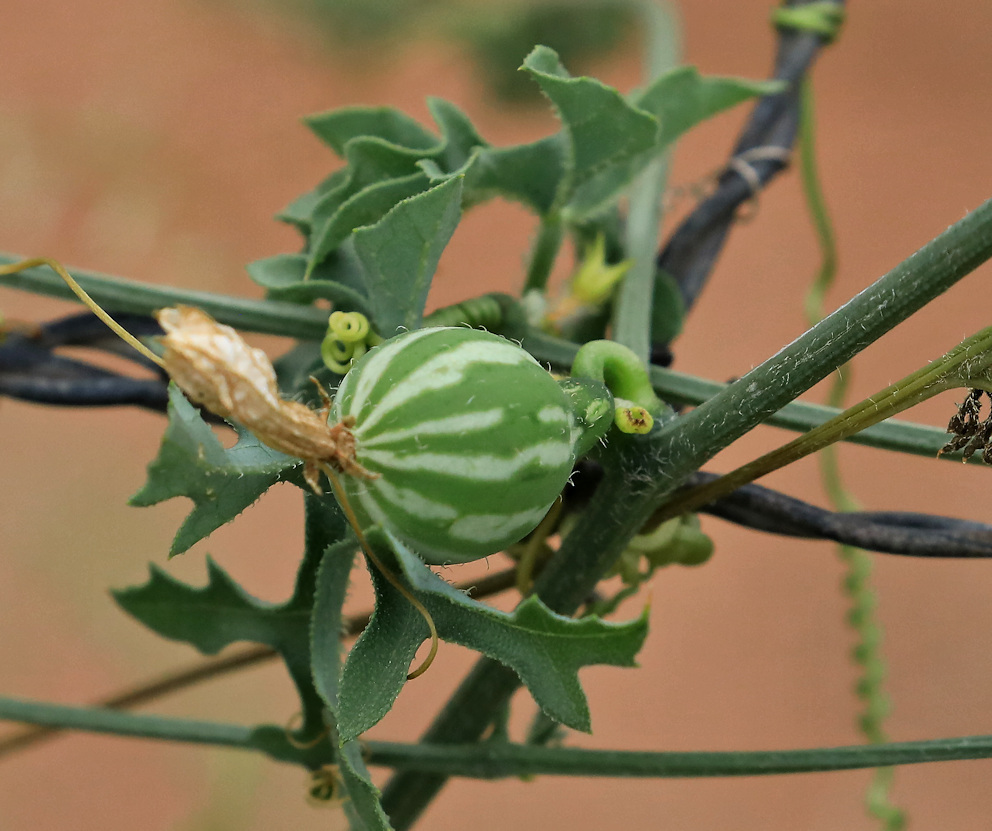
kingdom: Plantae
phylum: Tracheophyta
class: Magnoliopsida
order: Cucurbitales
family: Cucurbitaceae
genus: Coccinia
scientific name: Coccinia rehmannii
